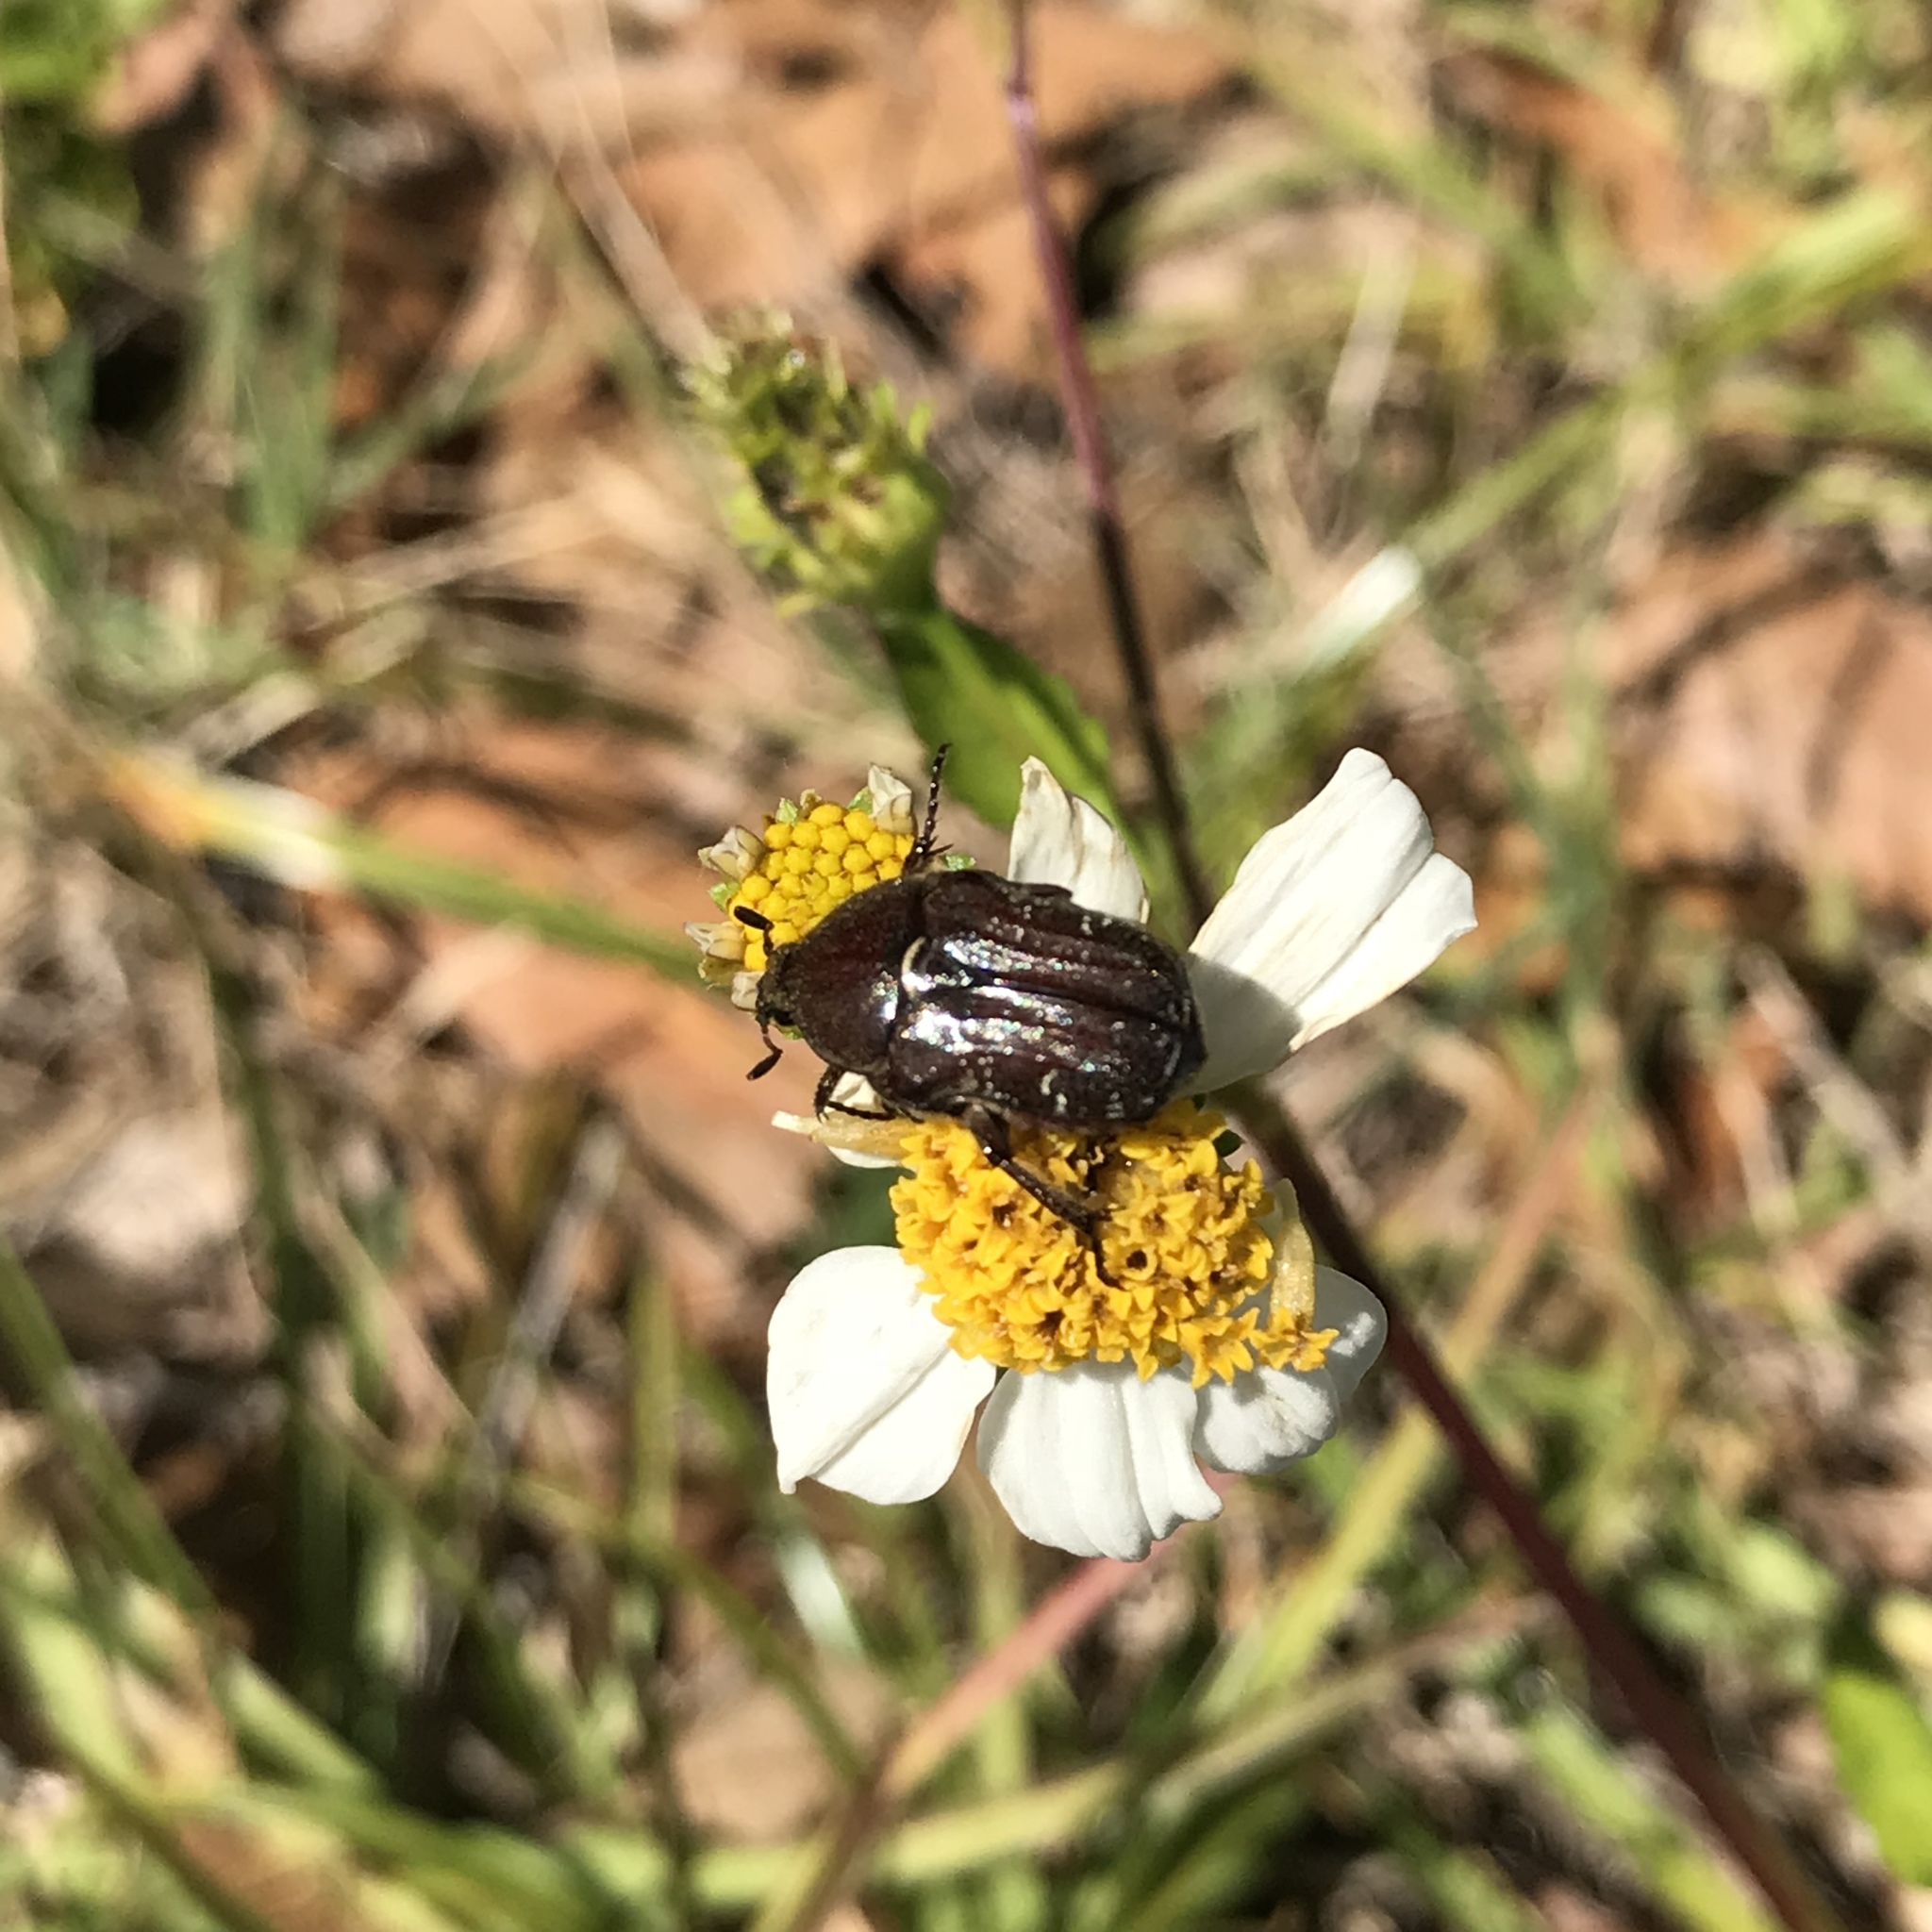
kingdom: Animalia
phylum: Arthropoda
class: Insecta
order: Coleoptera
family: Scarabaeidae
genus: Euphoria
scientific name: Euphoria sepulcralis
